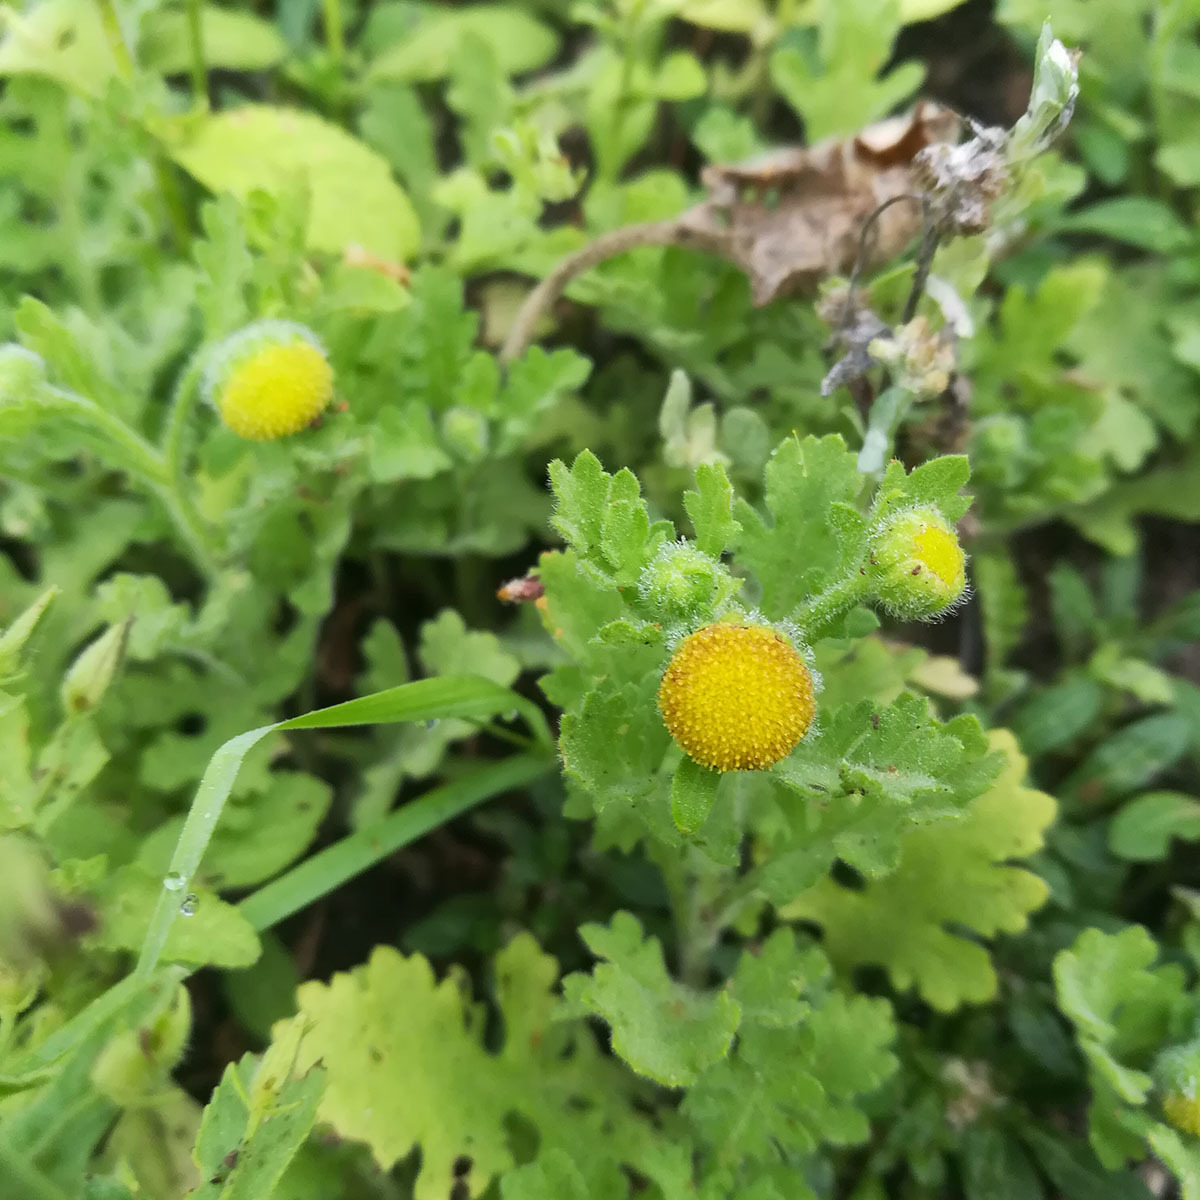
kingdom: Plantae
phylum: Tracheophyta
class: Magnoliopsida
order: Asterales
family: Asteraceae
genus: Grangea
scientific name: Grangea maderaspatana
